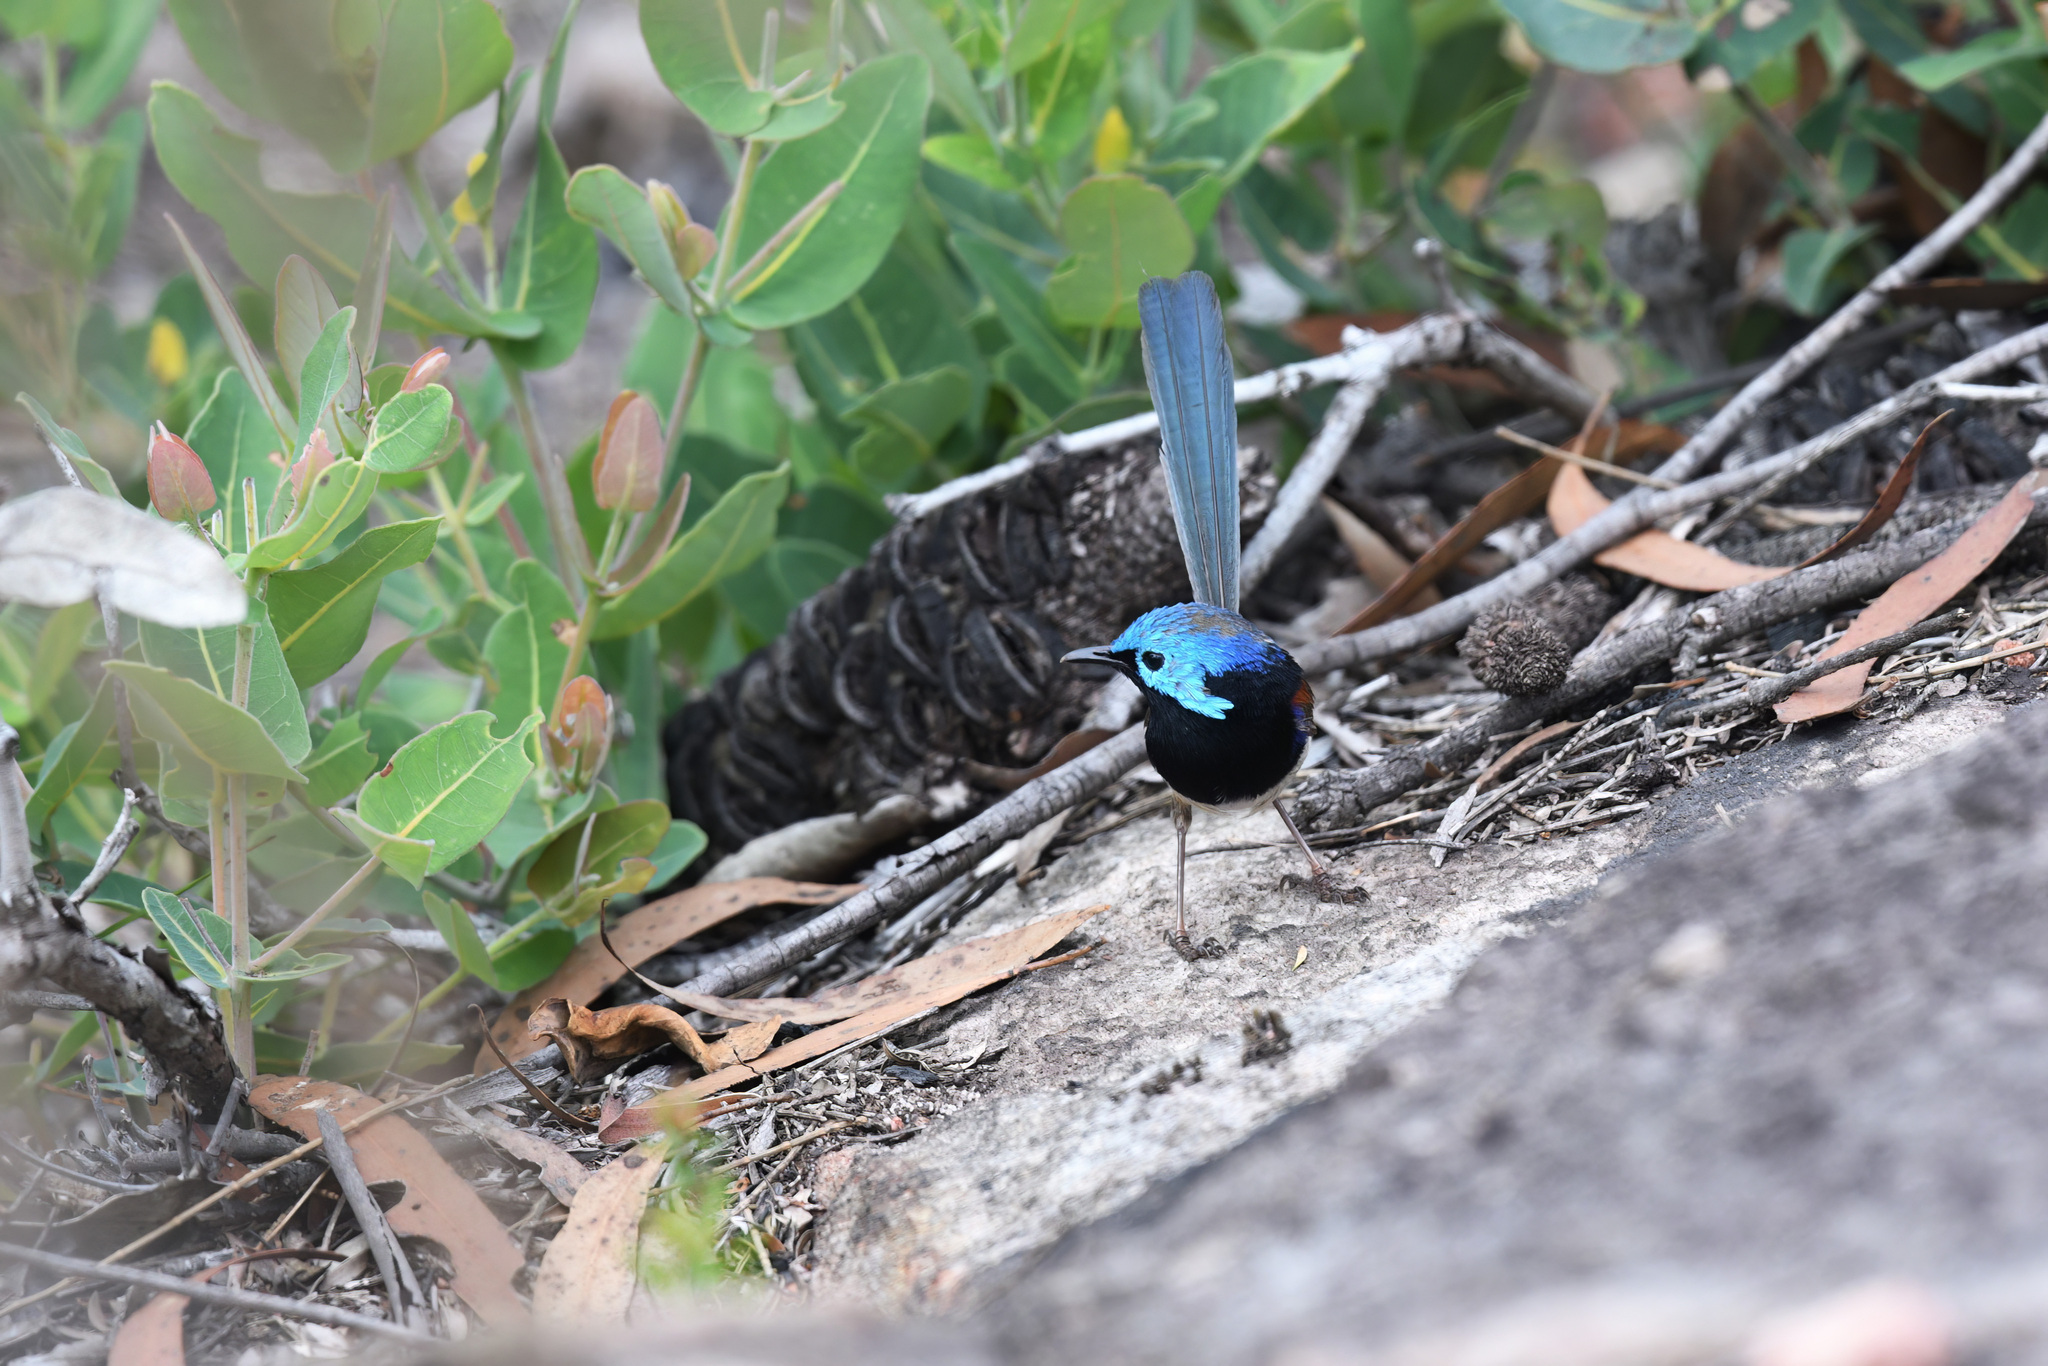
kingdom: Animalia
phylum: Chordata
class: Aves
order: Passeriformes
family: Maluridae
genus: Malurus
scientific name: Malurus lamberti
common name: Variegated fairywren
